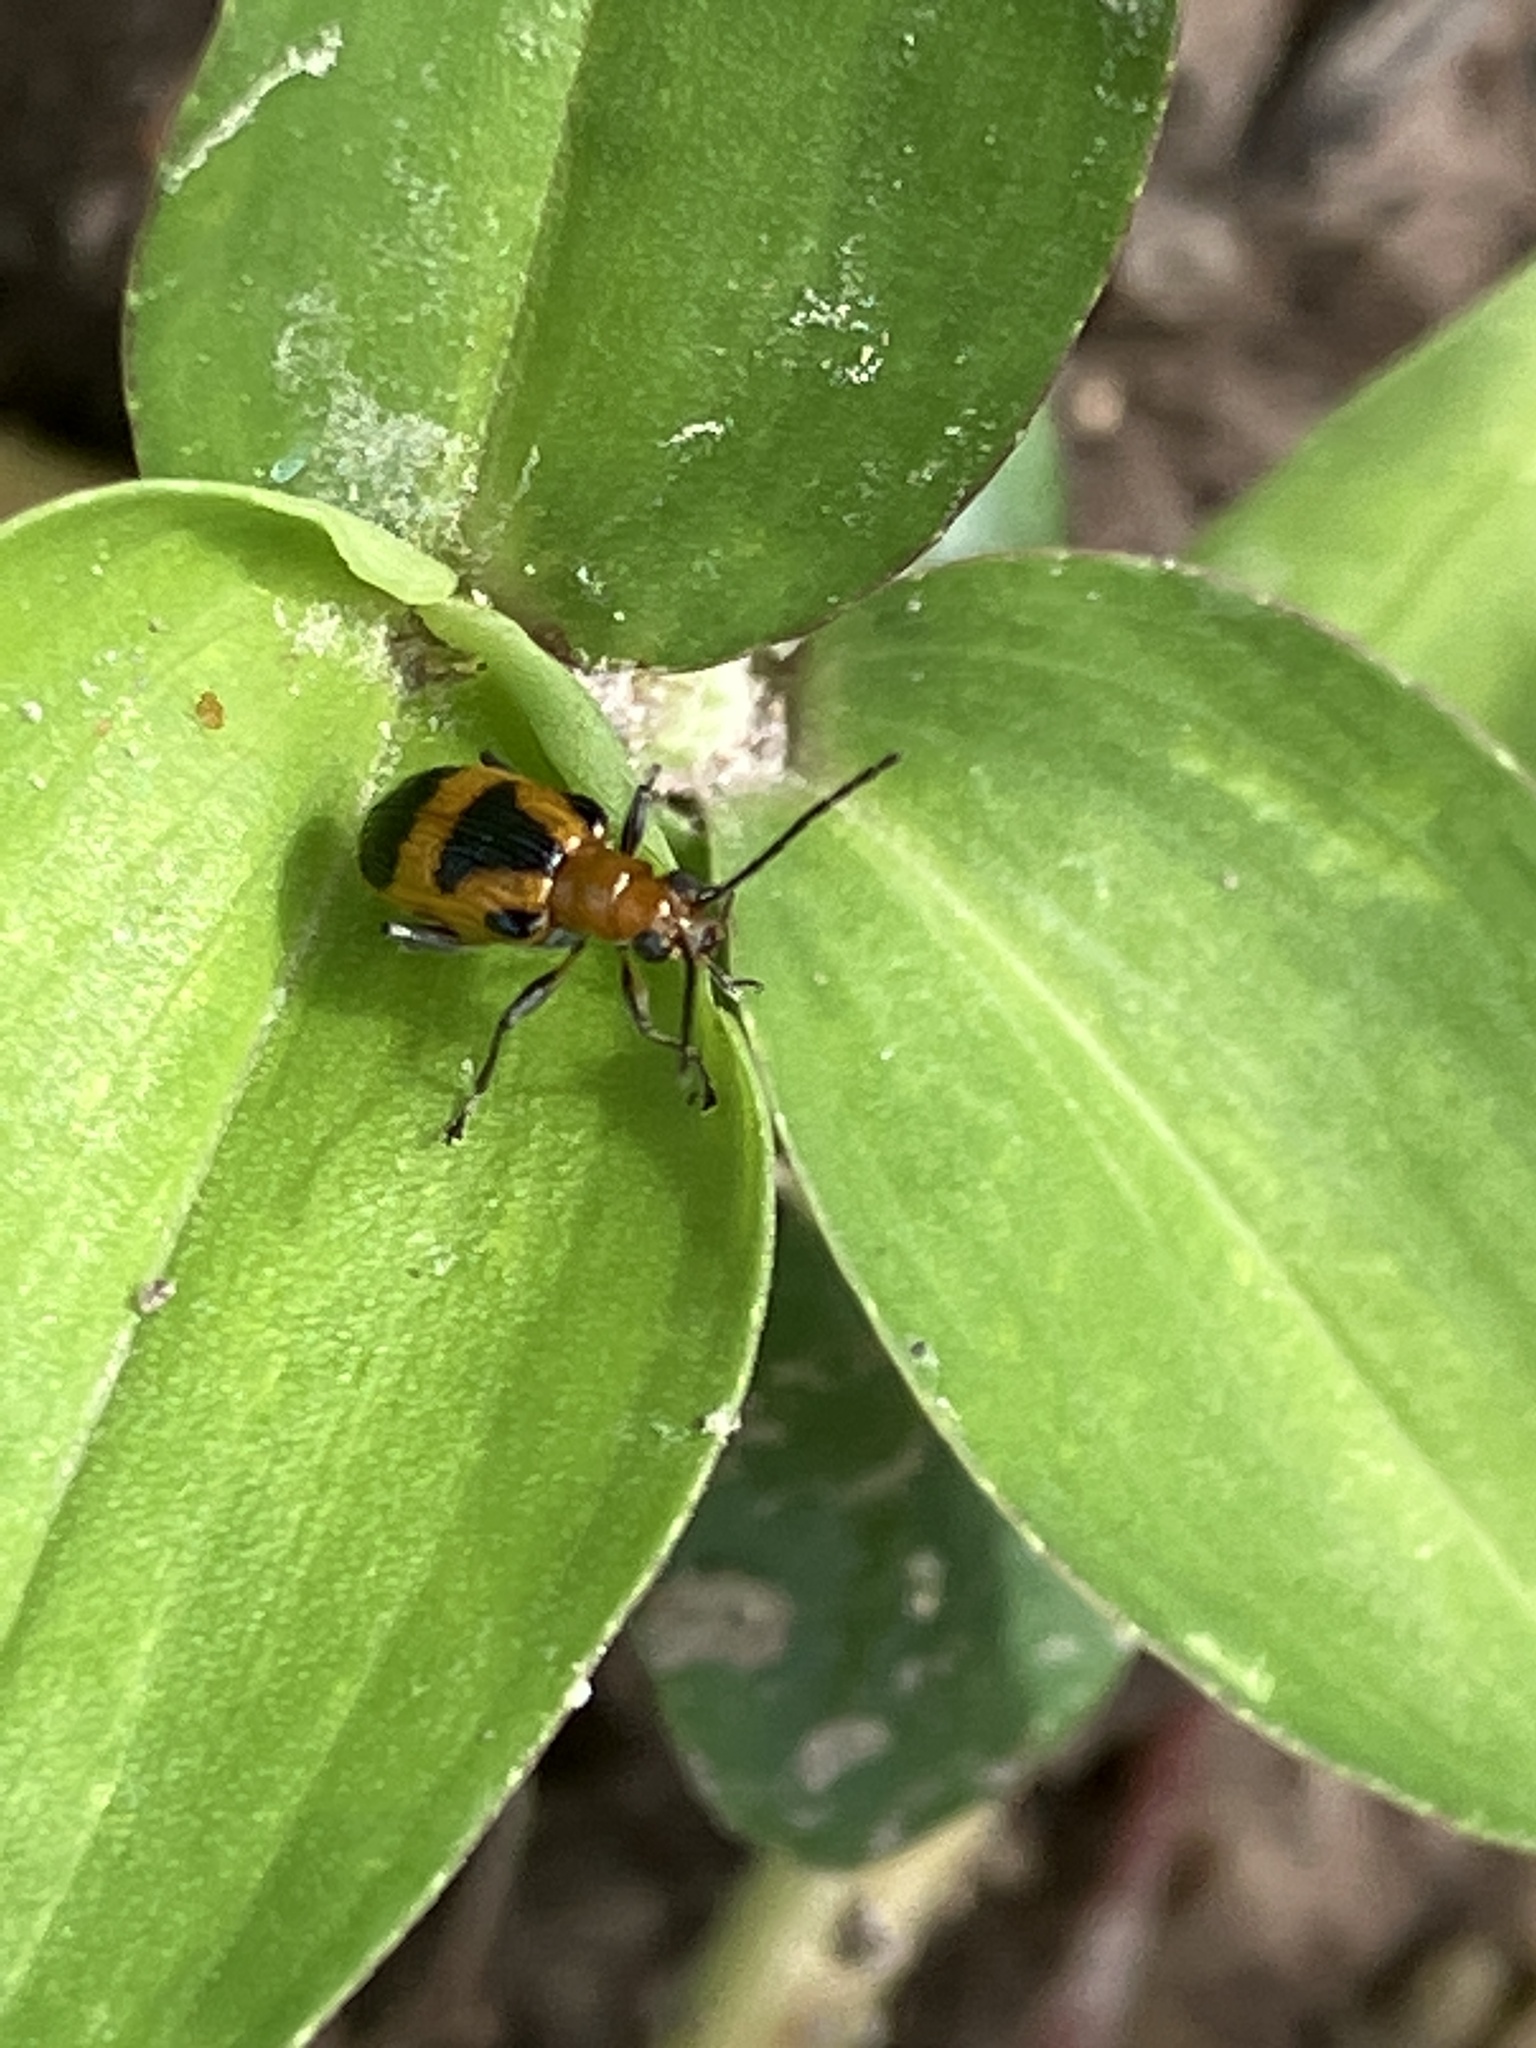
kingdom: Animalia
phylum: Arthropoda
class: Insecta
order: Coleoptera
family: Chrysomelidae
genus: Neolema
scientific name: Neolema dorsalis
